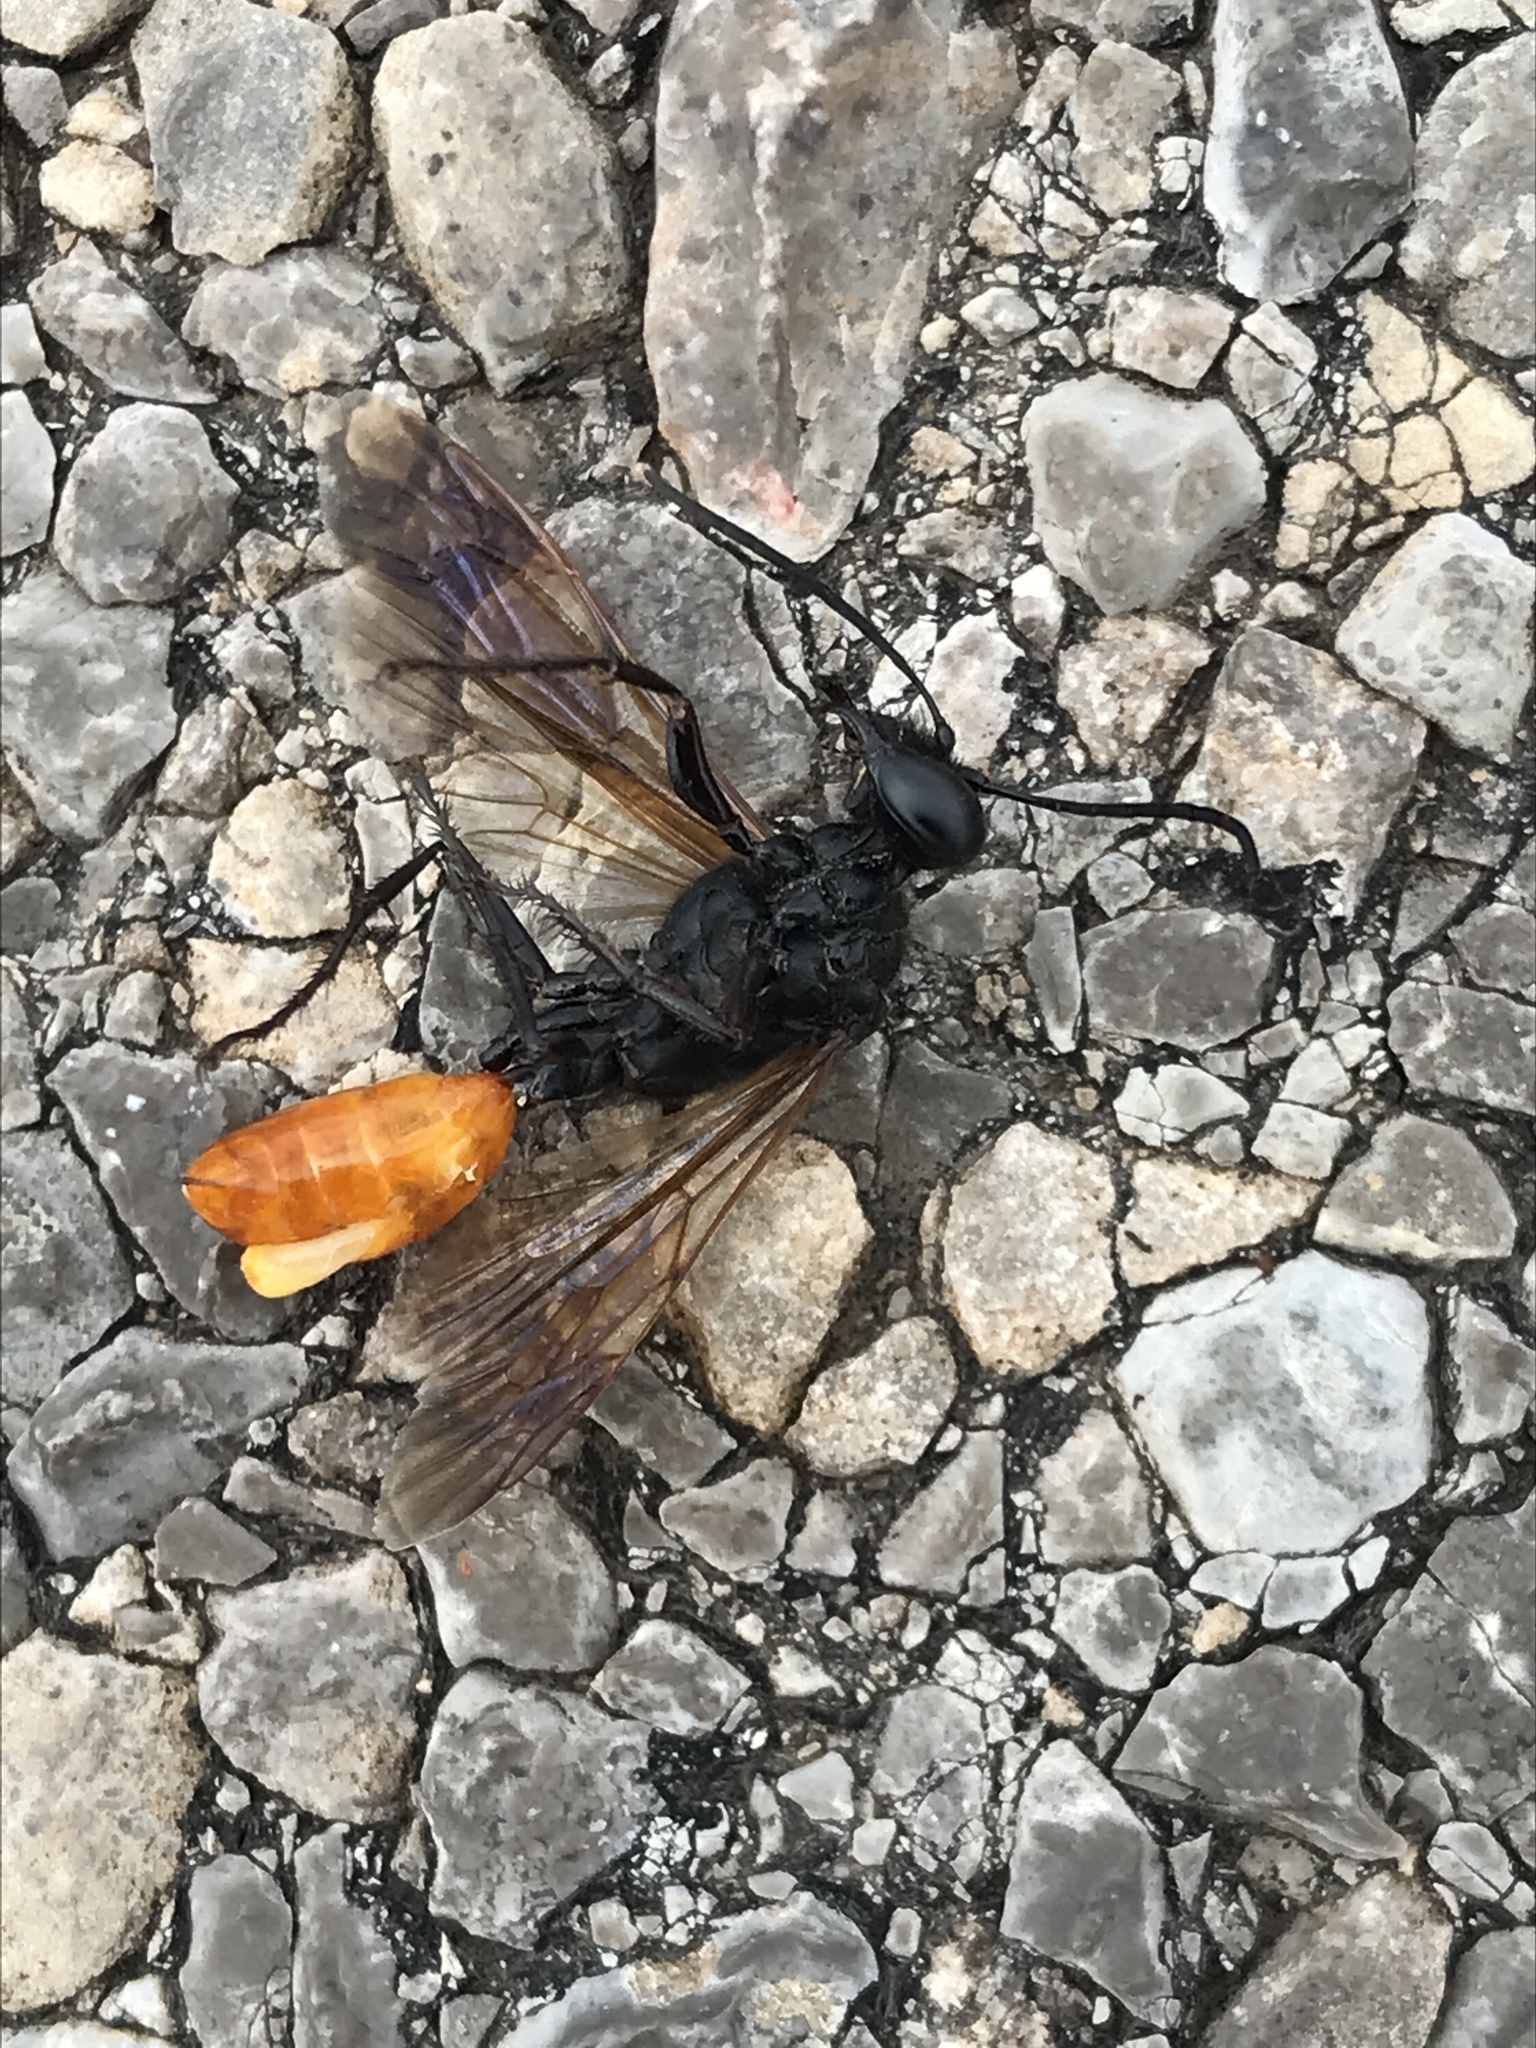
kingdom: Animalia
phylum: Arthropoda
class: Insecta
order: Hymenoptera
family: Sphecidae
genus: Sphex
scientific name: Sphex lucae
